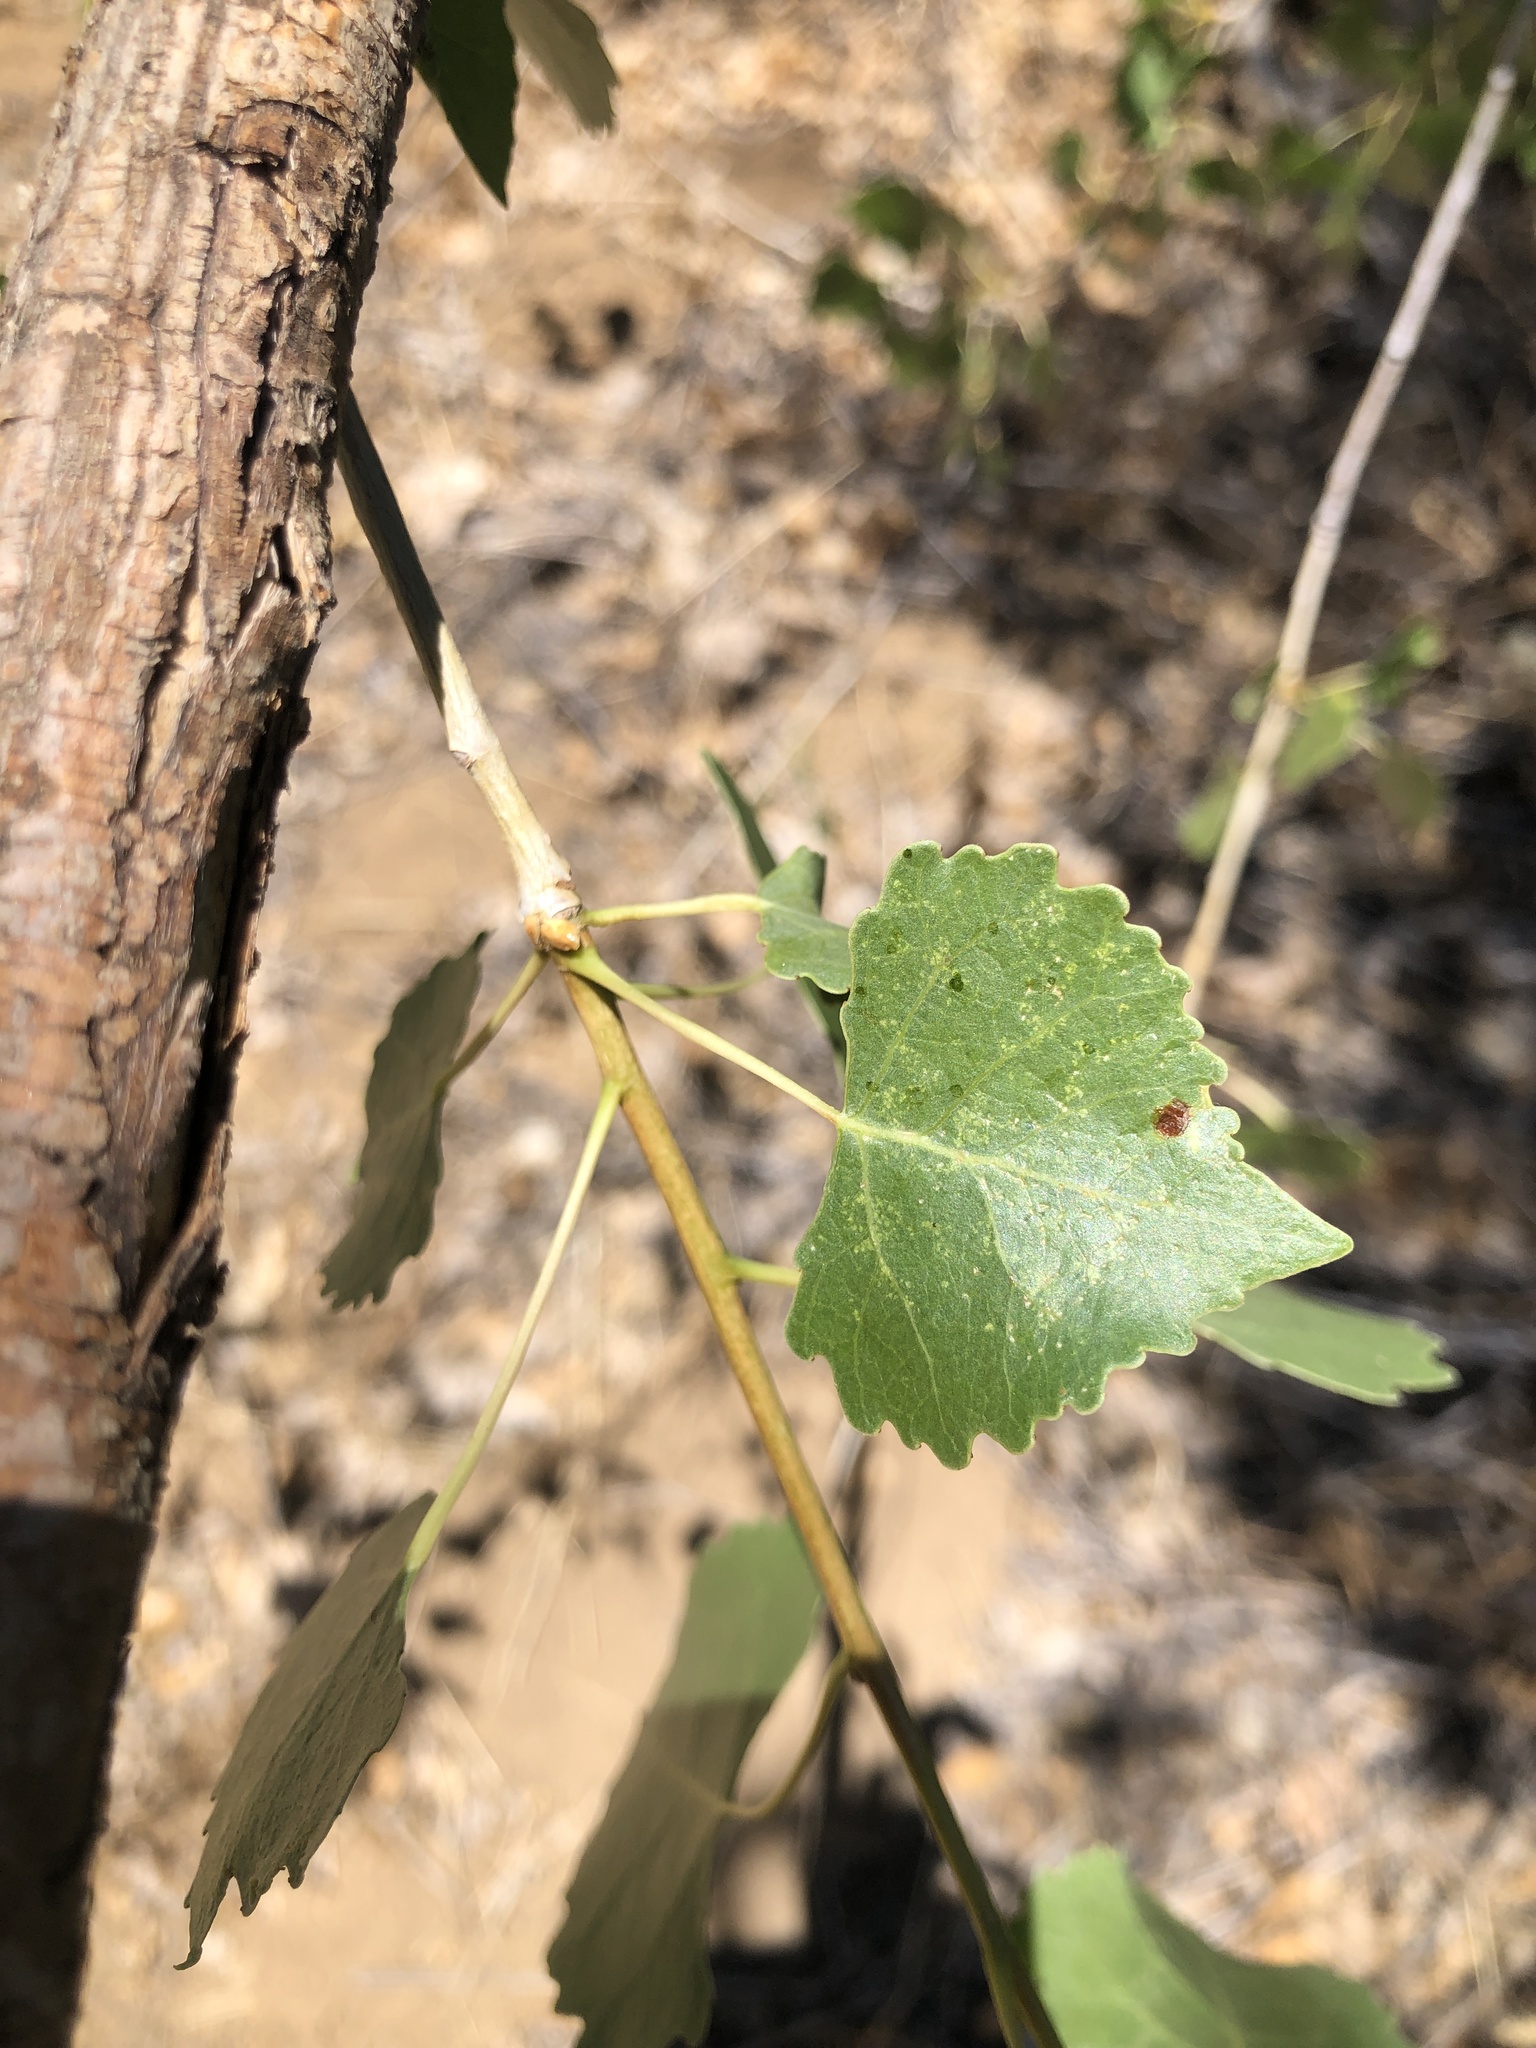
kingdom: Plantae
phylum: Tracheophyta
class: Magnoliopsida
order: Malpighiales
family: Salicaceae
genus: Populus
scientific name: Populus fremontii
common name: Fremont's cottonwood
